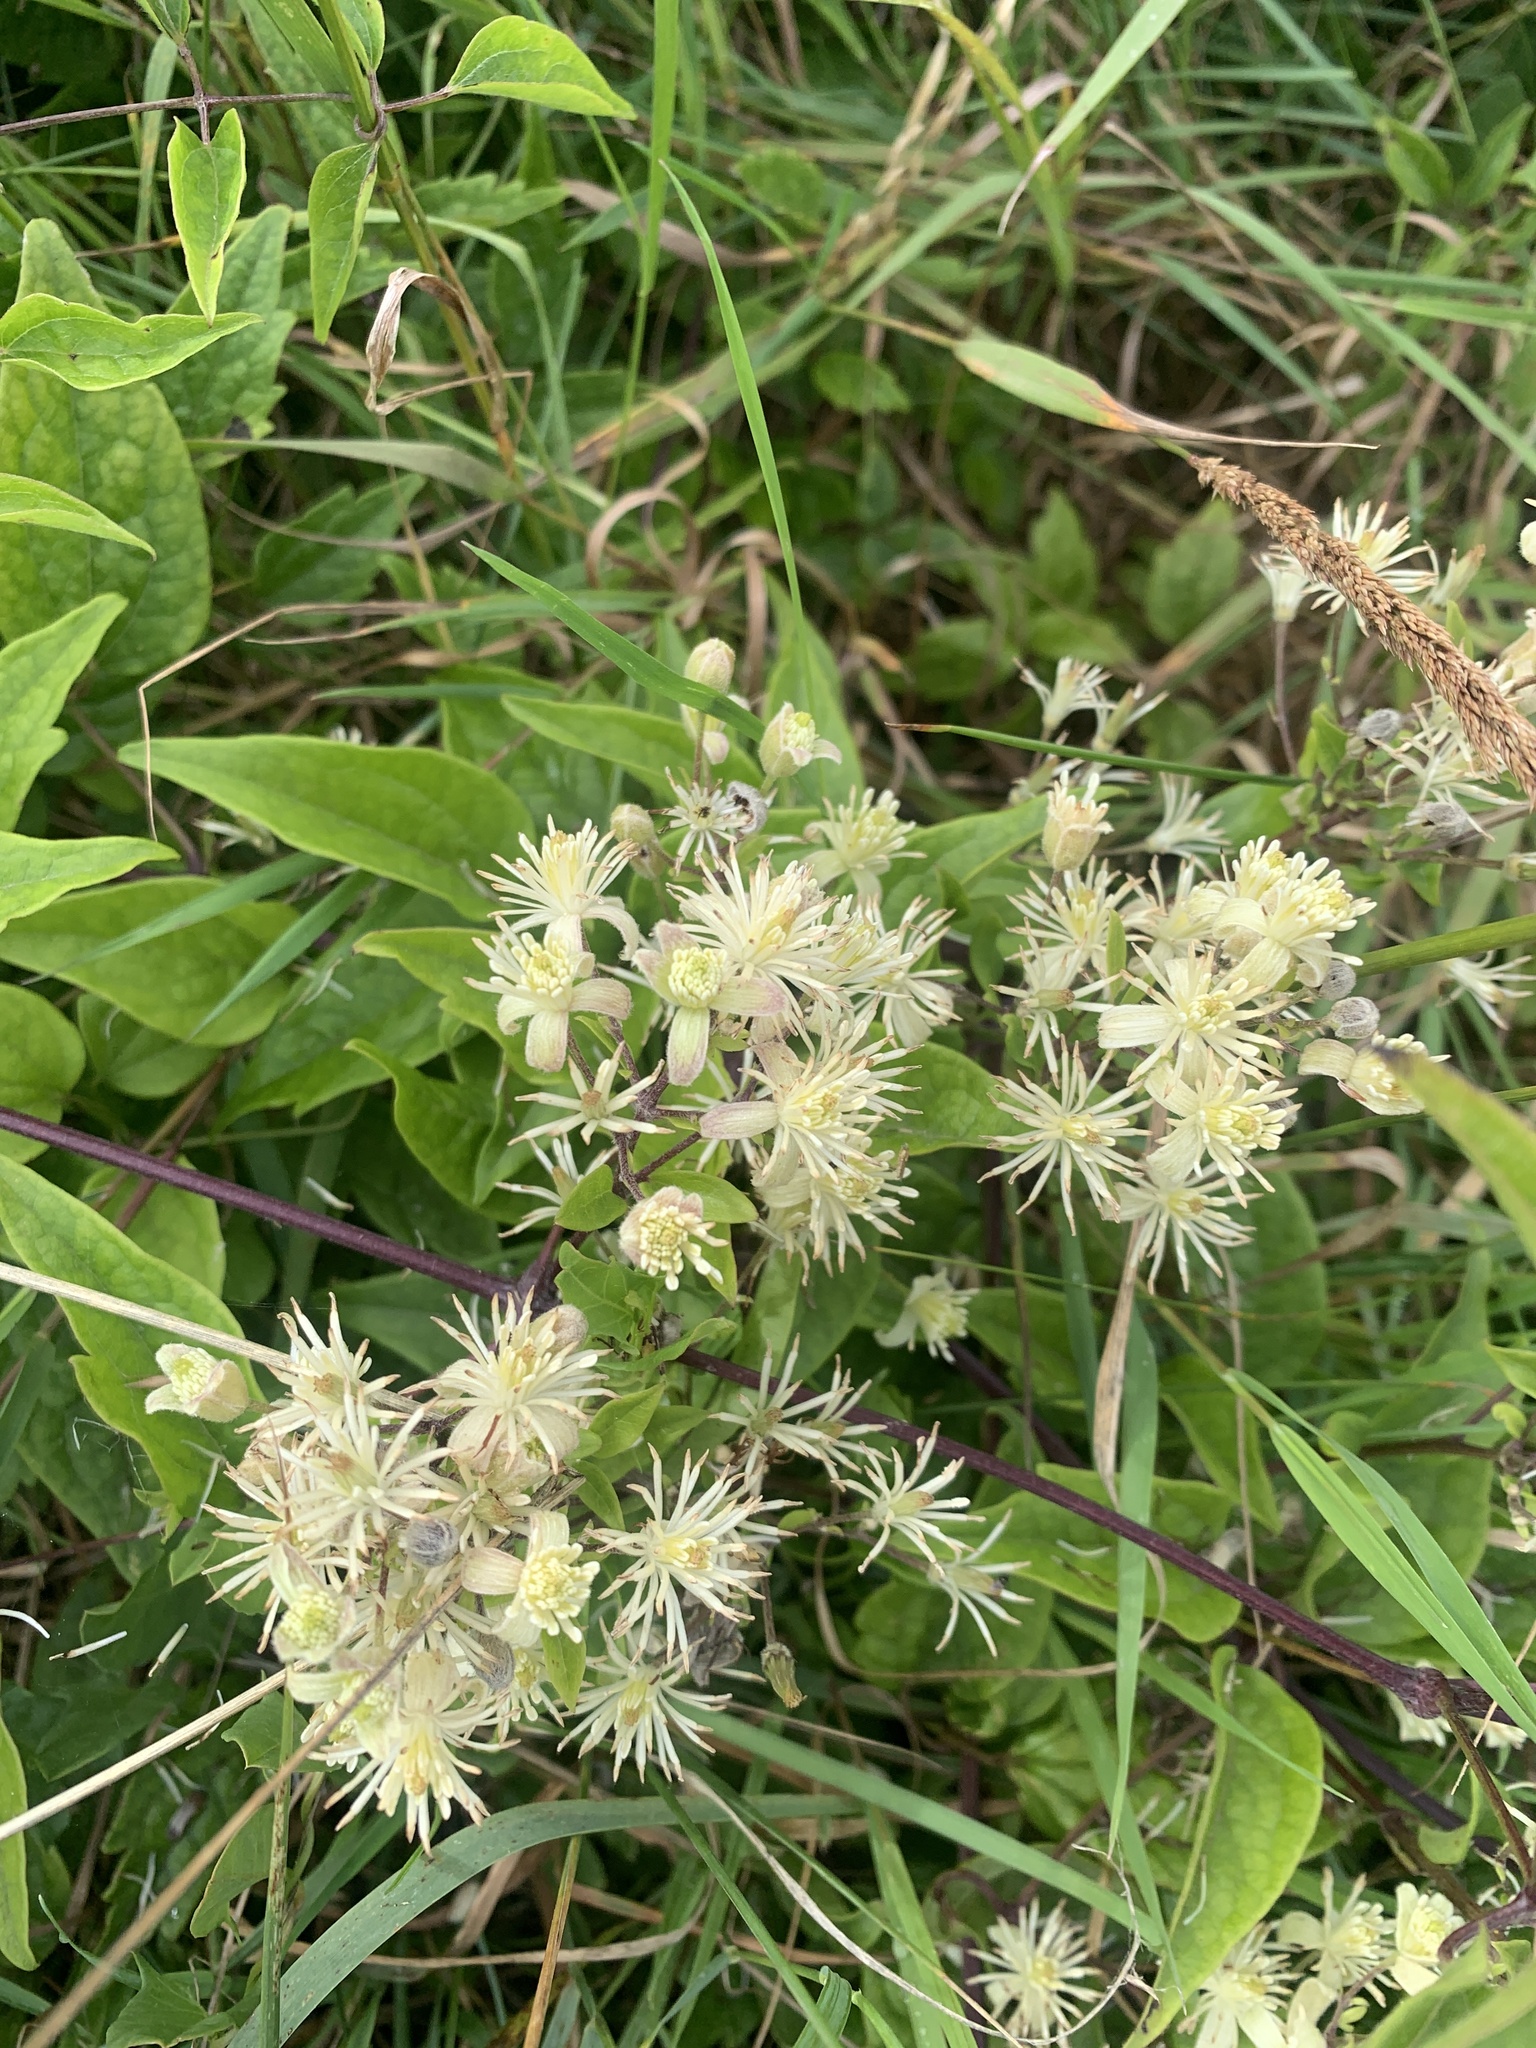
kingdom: Plantae
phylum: Tracheophyta
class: Magnoliopsida
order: Ranunculales
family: Ranunculaceae
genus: Clematis
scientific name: Clematis vitalba
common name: Evergreen clematis
